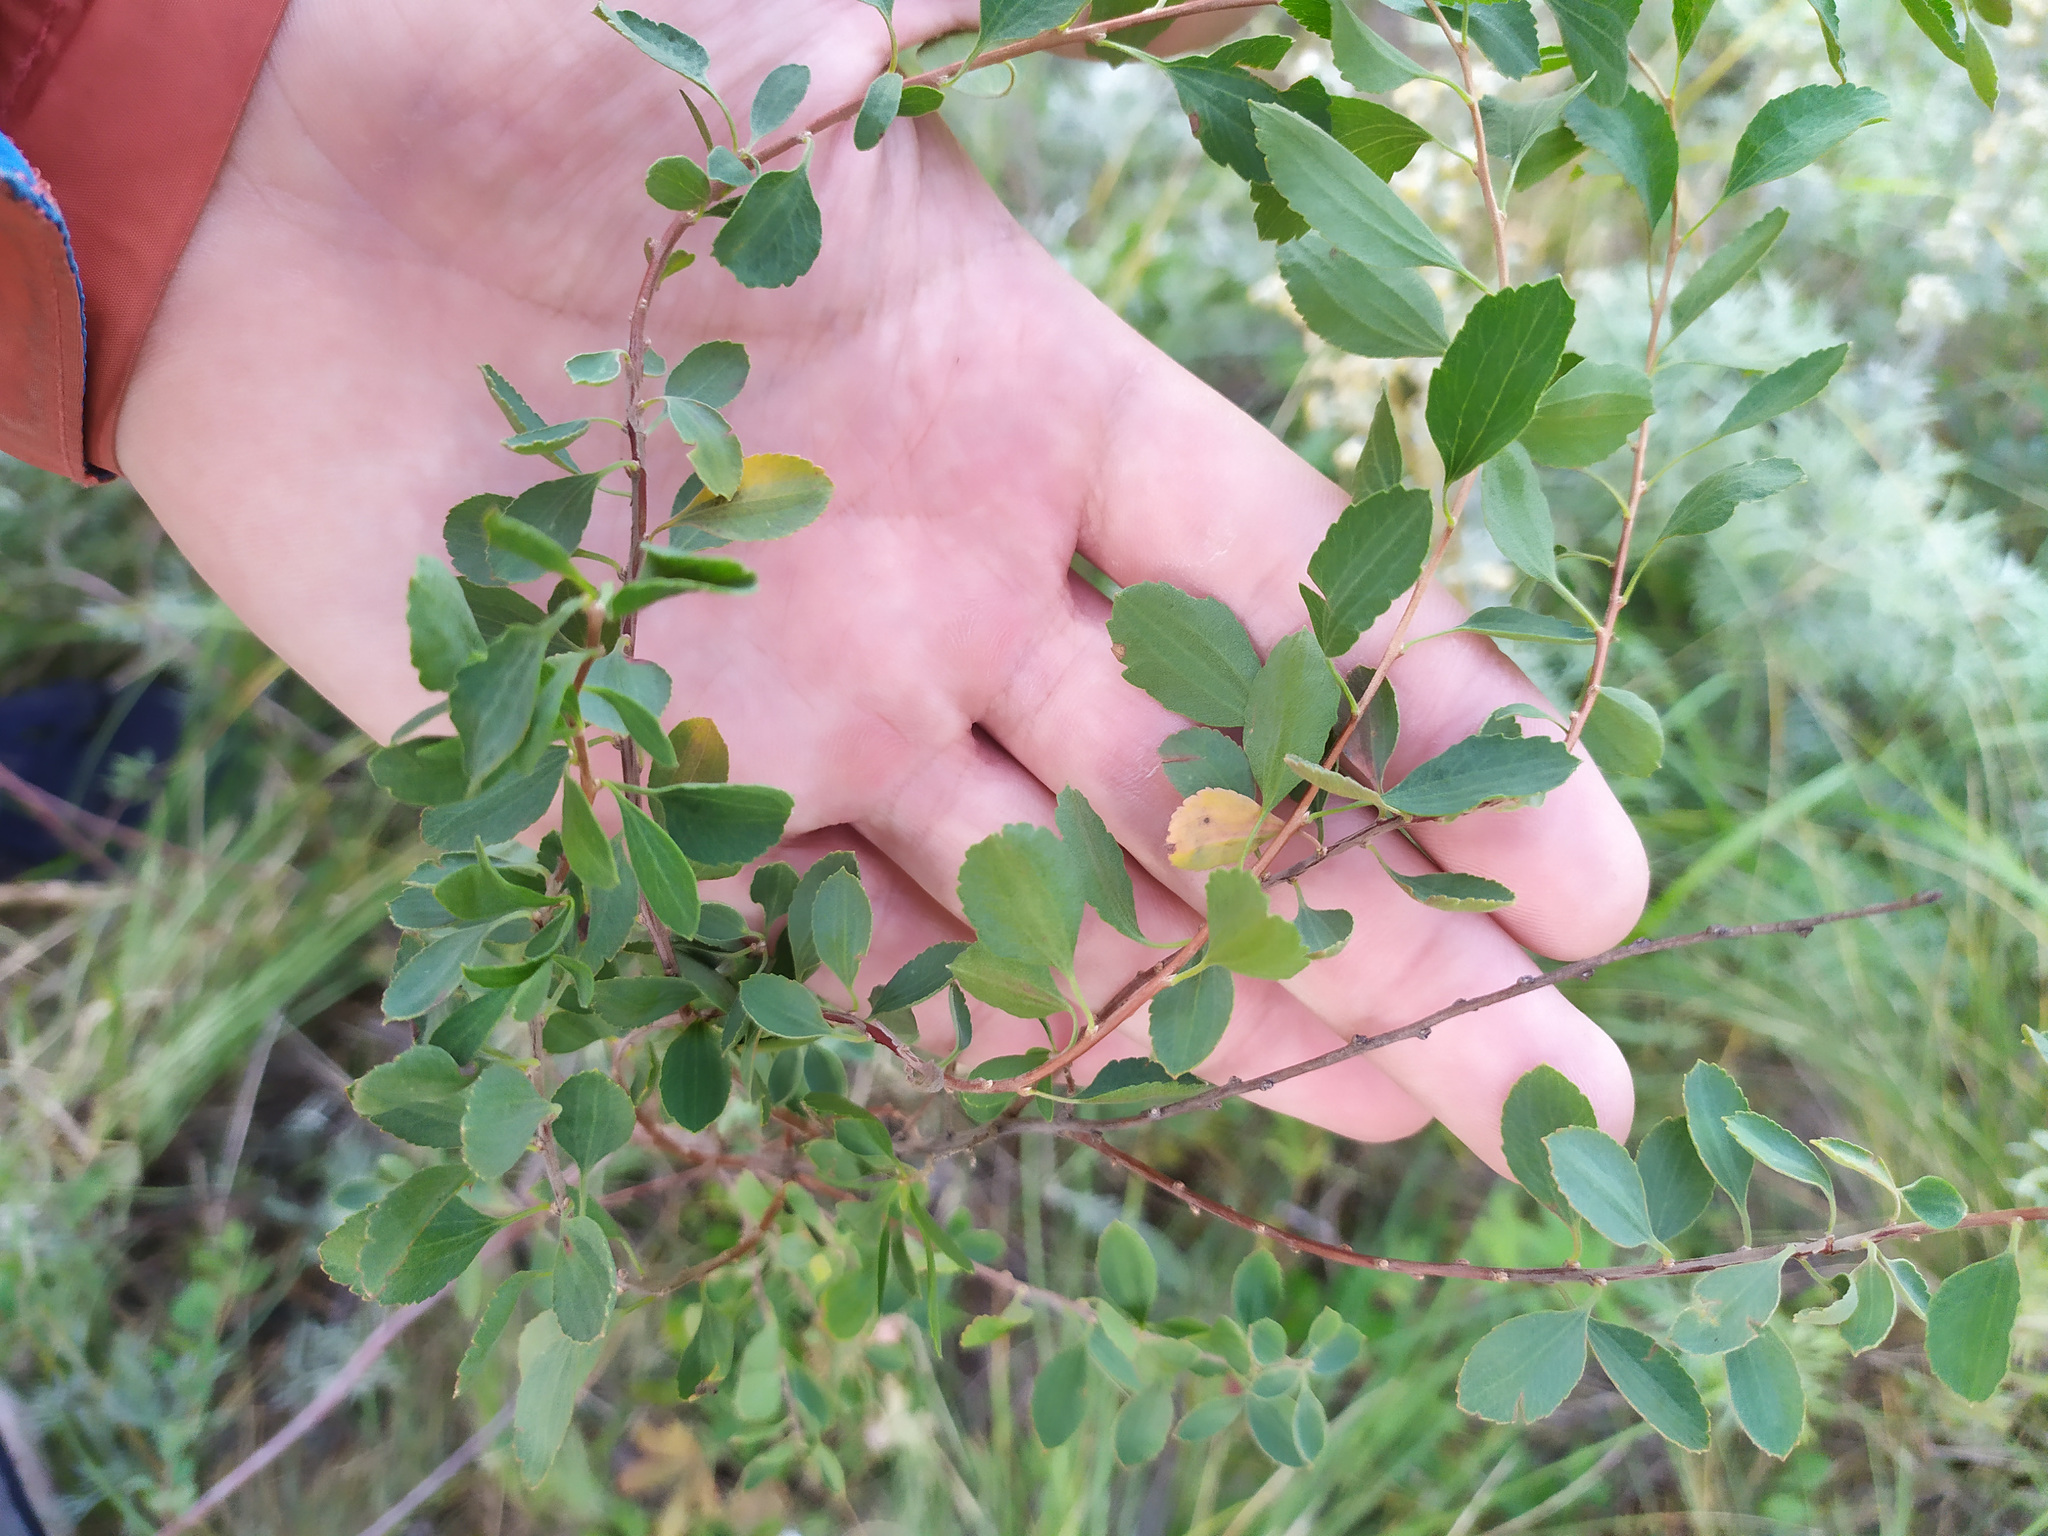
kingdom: Plantae
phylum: Tracheophyta
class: Magnoliopsida
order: Rosales
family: Rosaceae
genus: Spiraea
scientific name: Spiraea crenata
